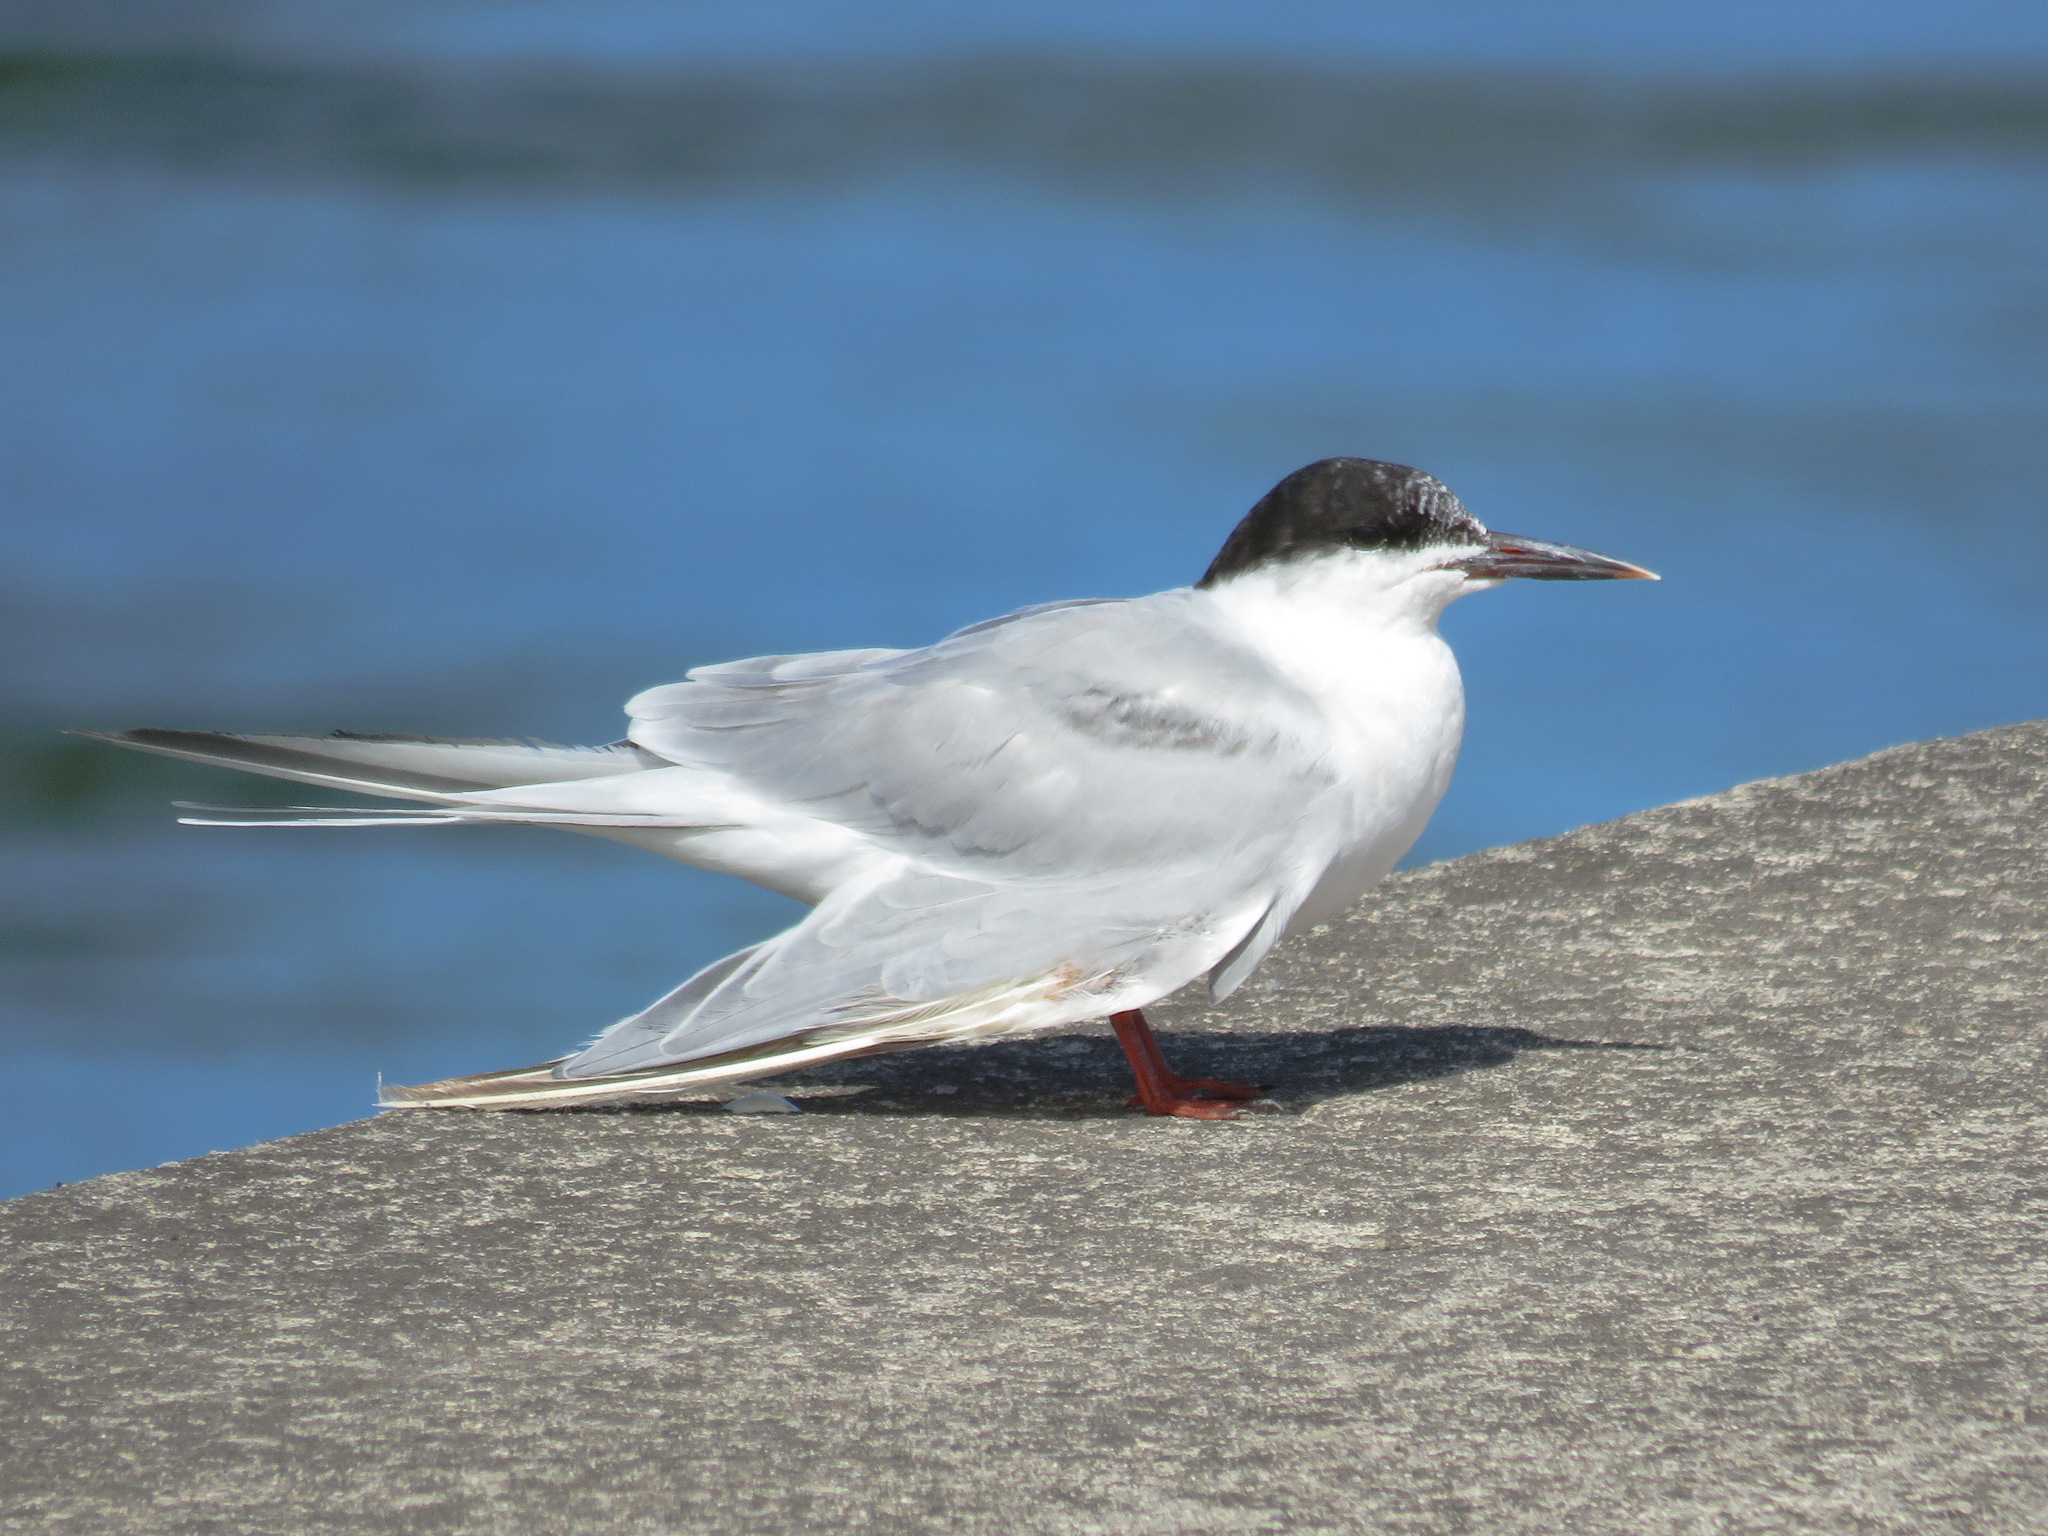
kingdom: Animalia
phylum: Chordata
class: Aves
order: Charadriiformes
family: Laridae
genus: Sterna
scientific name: Sterna hirundo
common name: Common tern
